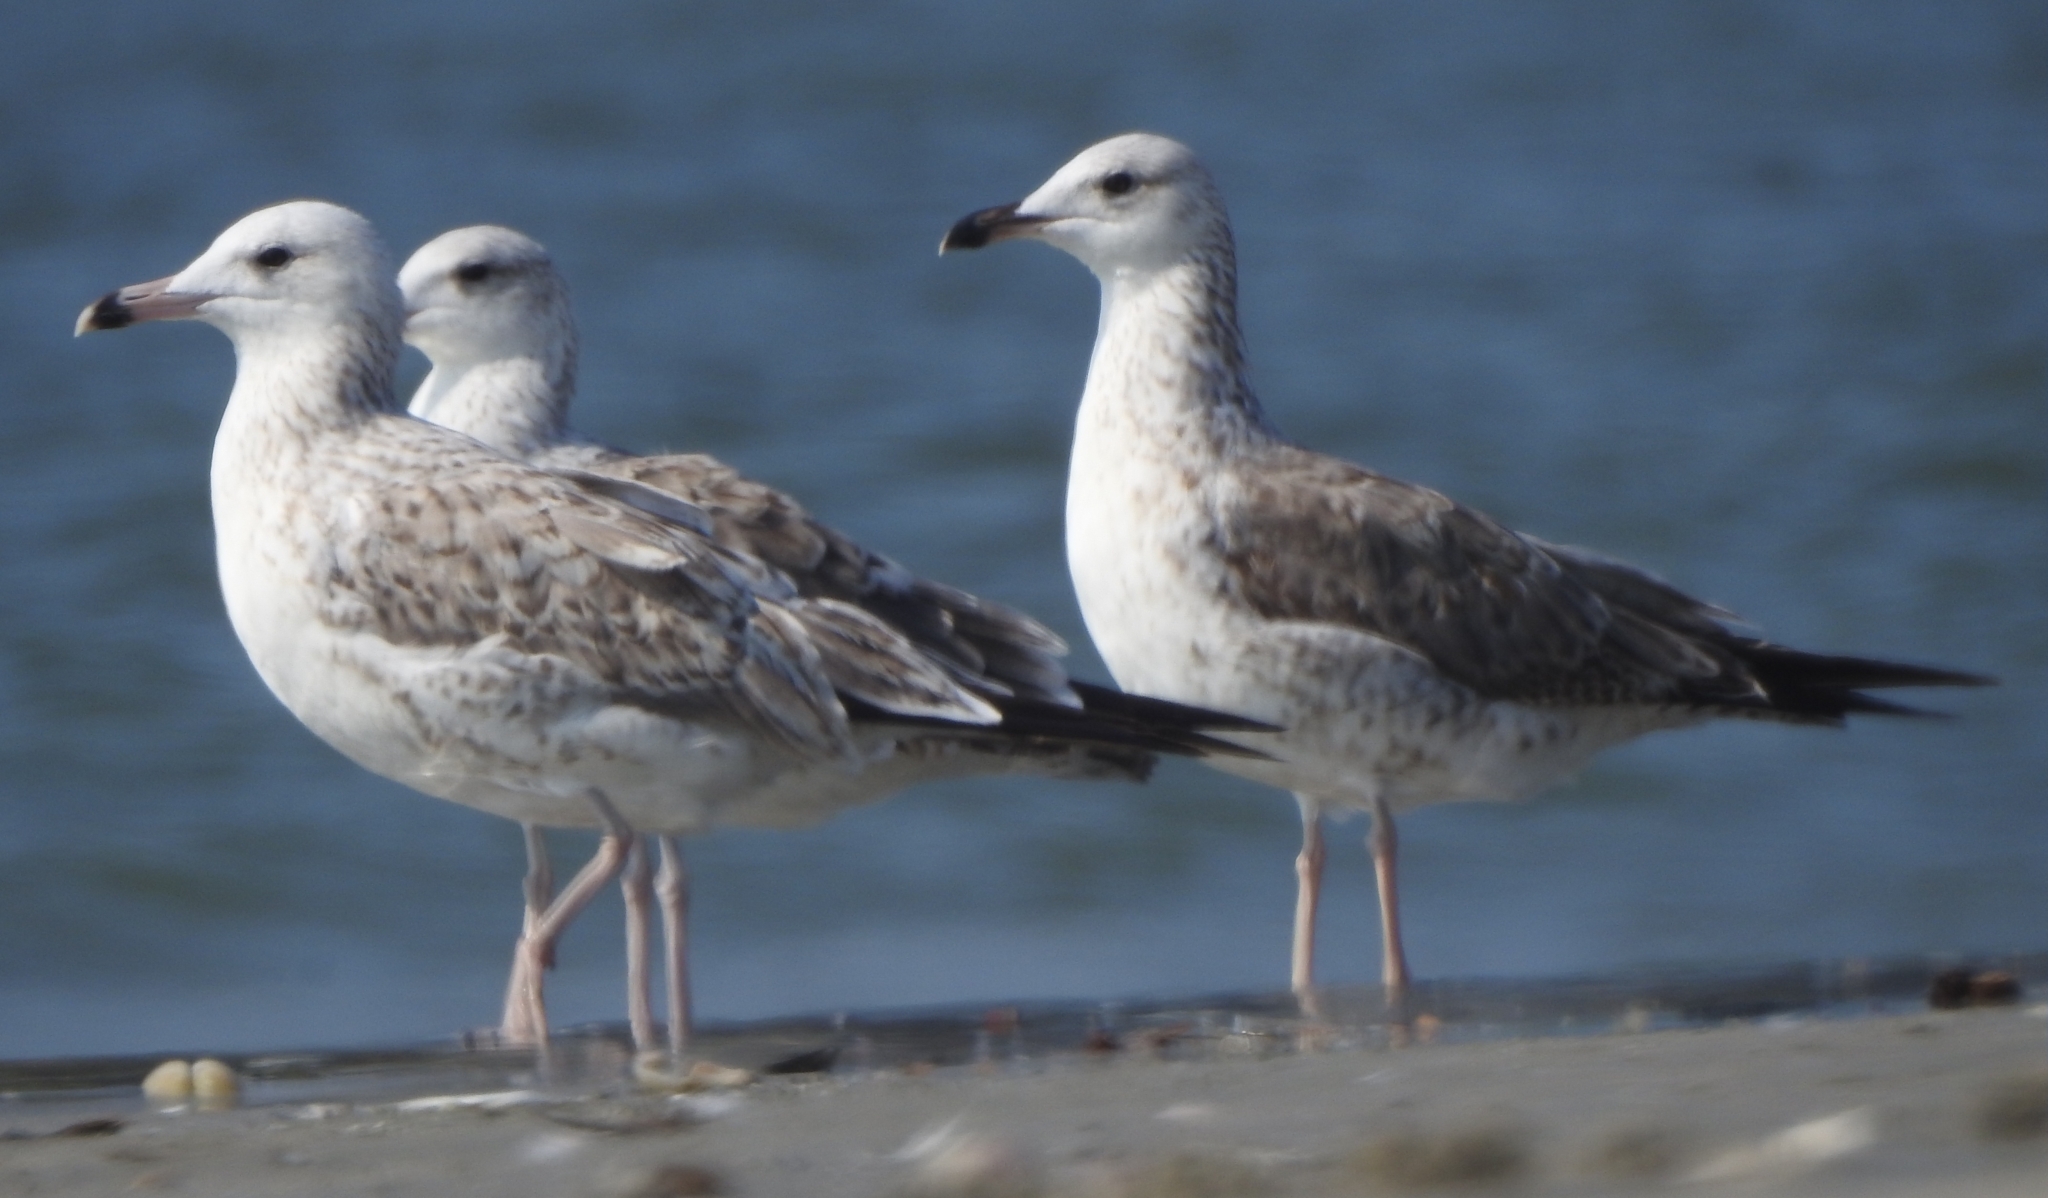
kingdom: Animalia
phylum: Chordata
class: Aves
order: Charadriiformes
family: Laridae
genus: Larus
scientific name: Larus fuscus
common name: Lesser black-backed gull
